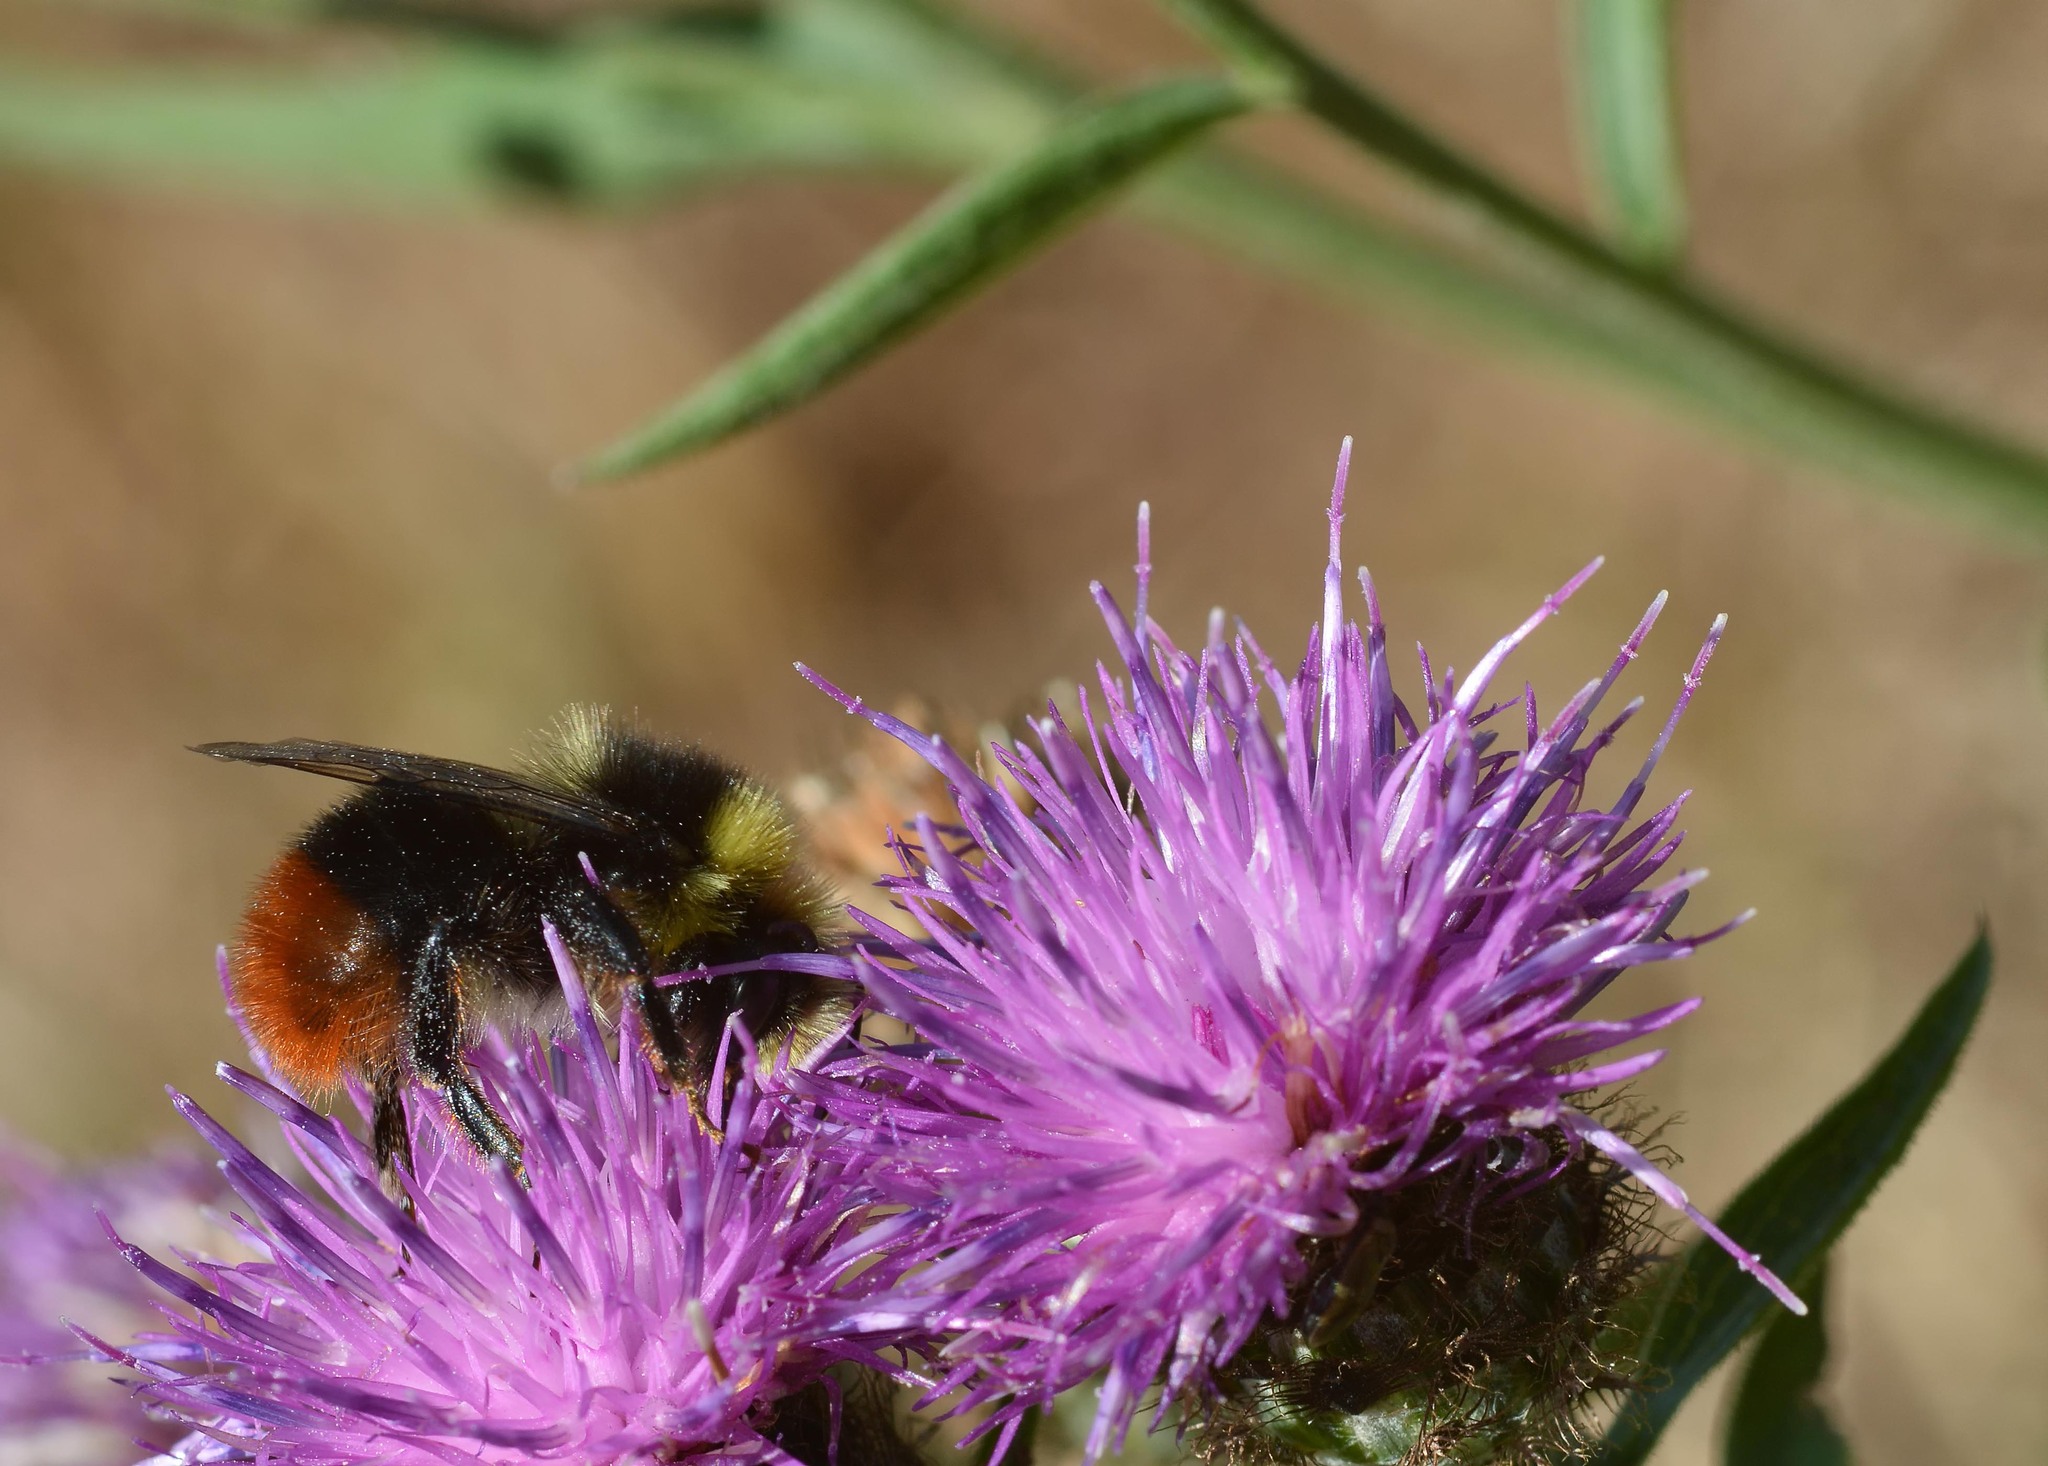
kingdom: Animalia
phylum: Arthropoda
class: Insecta
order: Hymenoptera
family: Apidae
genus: Bombus
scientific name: Bombus lapidarius
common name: Large red-tailed humble-bee
